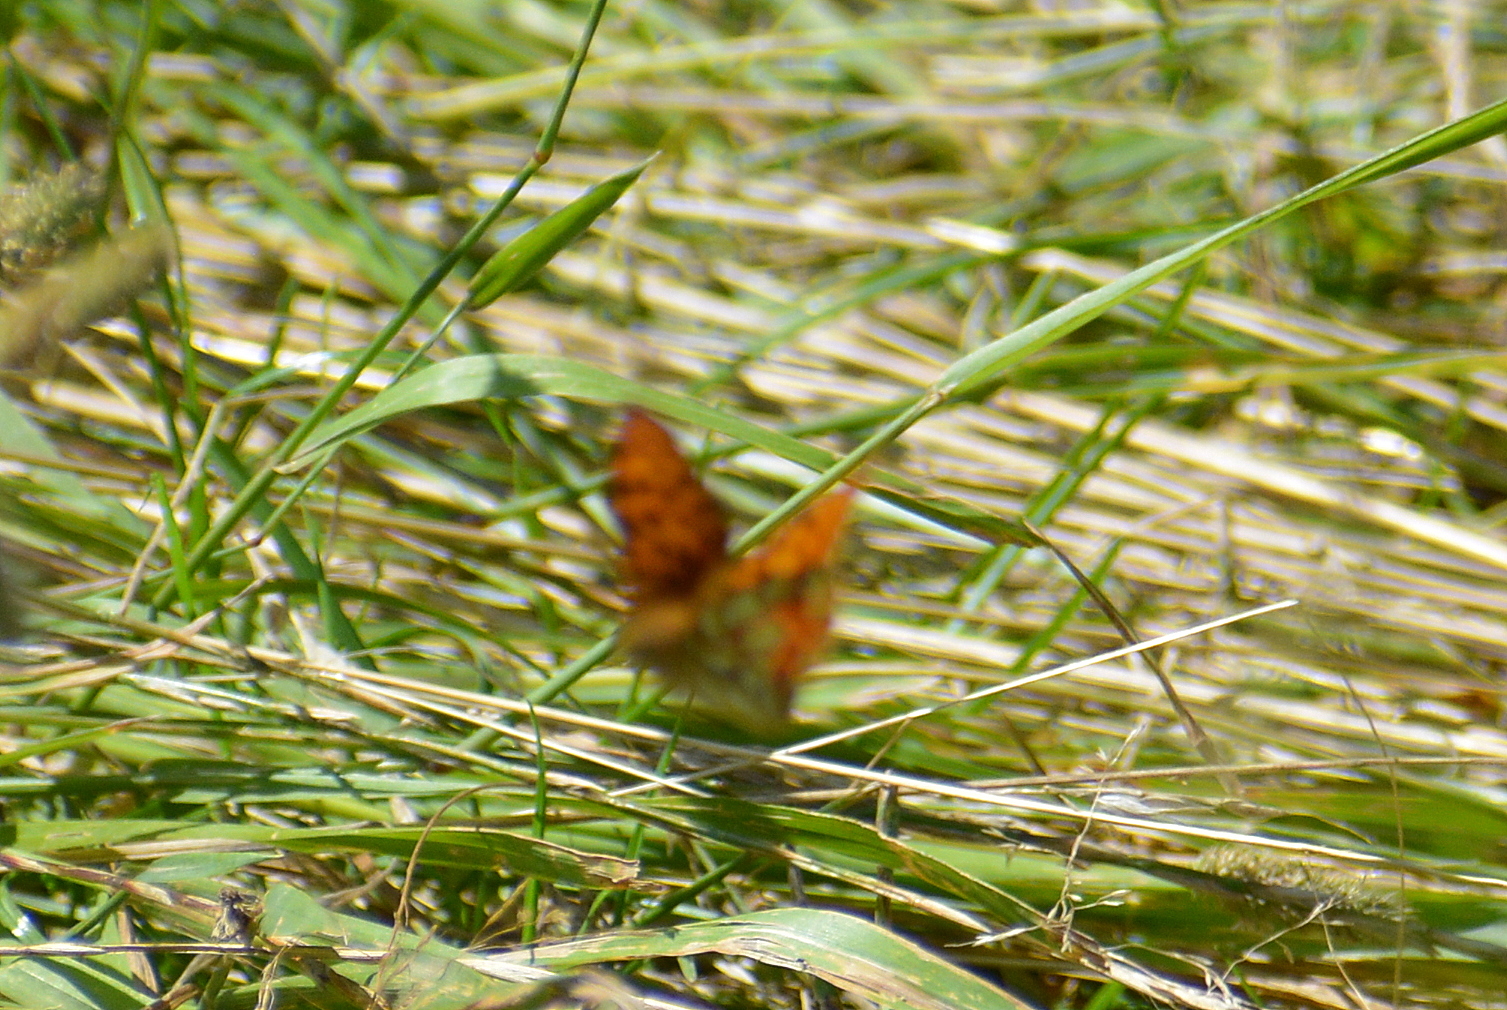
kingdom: Animalia
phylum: Arthropoda
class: Insecta
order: Lepidoptera
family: Nymphalidae
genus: Issoria
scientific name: Issoria lathonia
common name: Queen of spain fritillary
